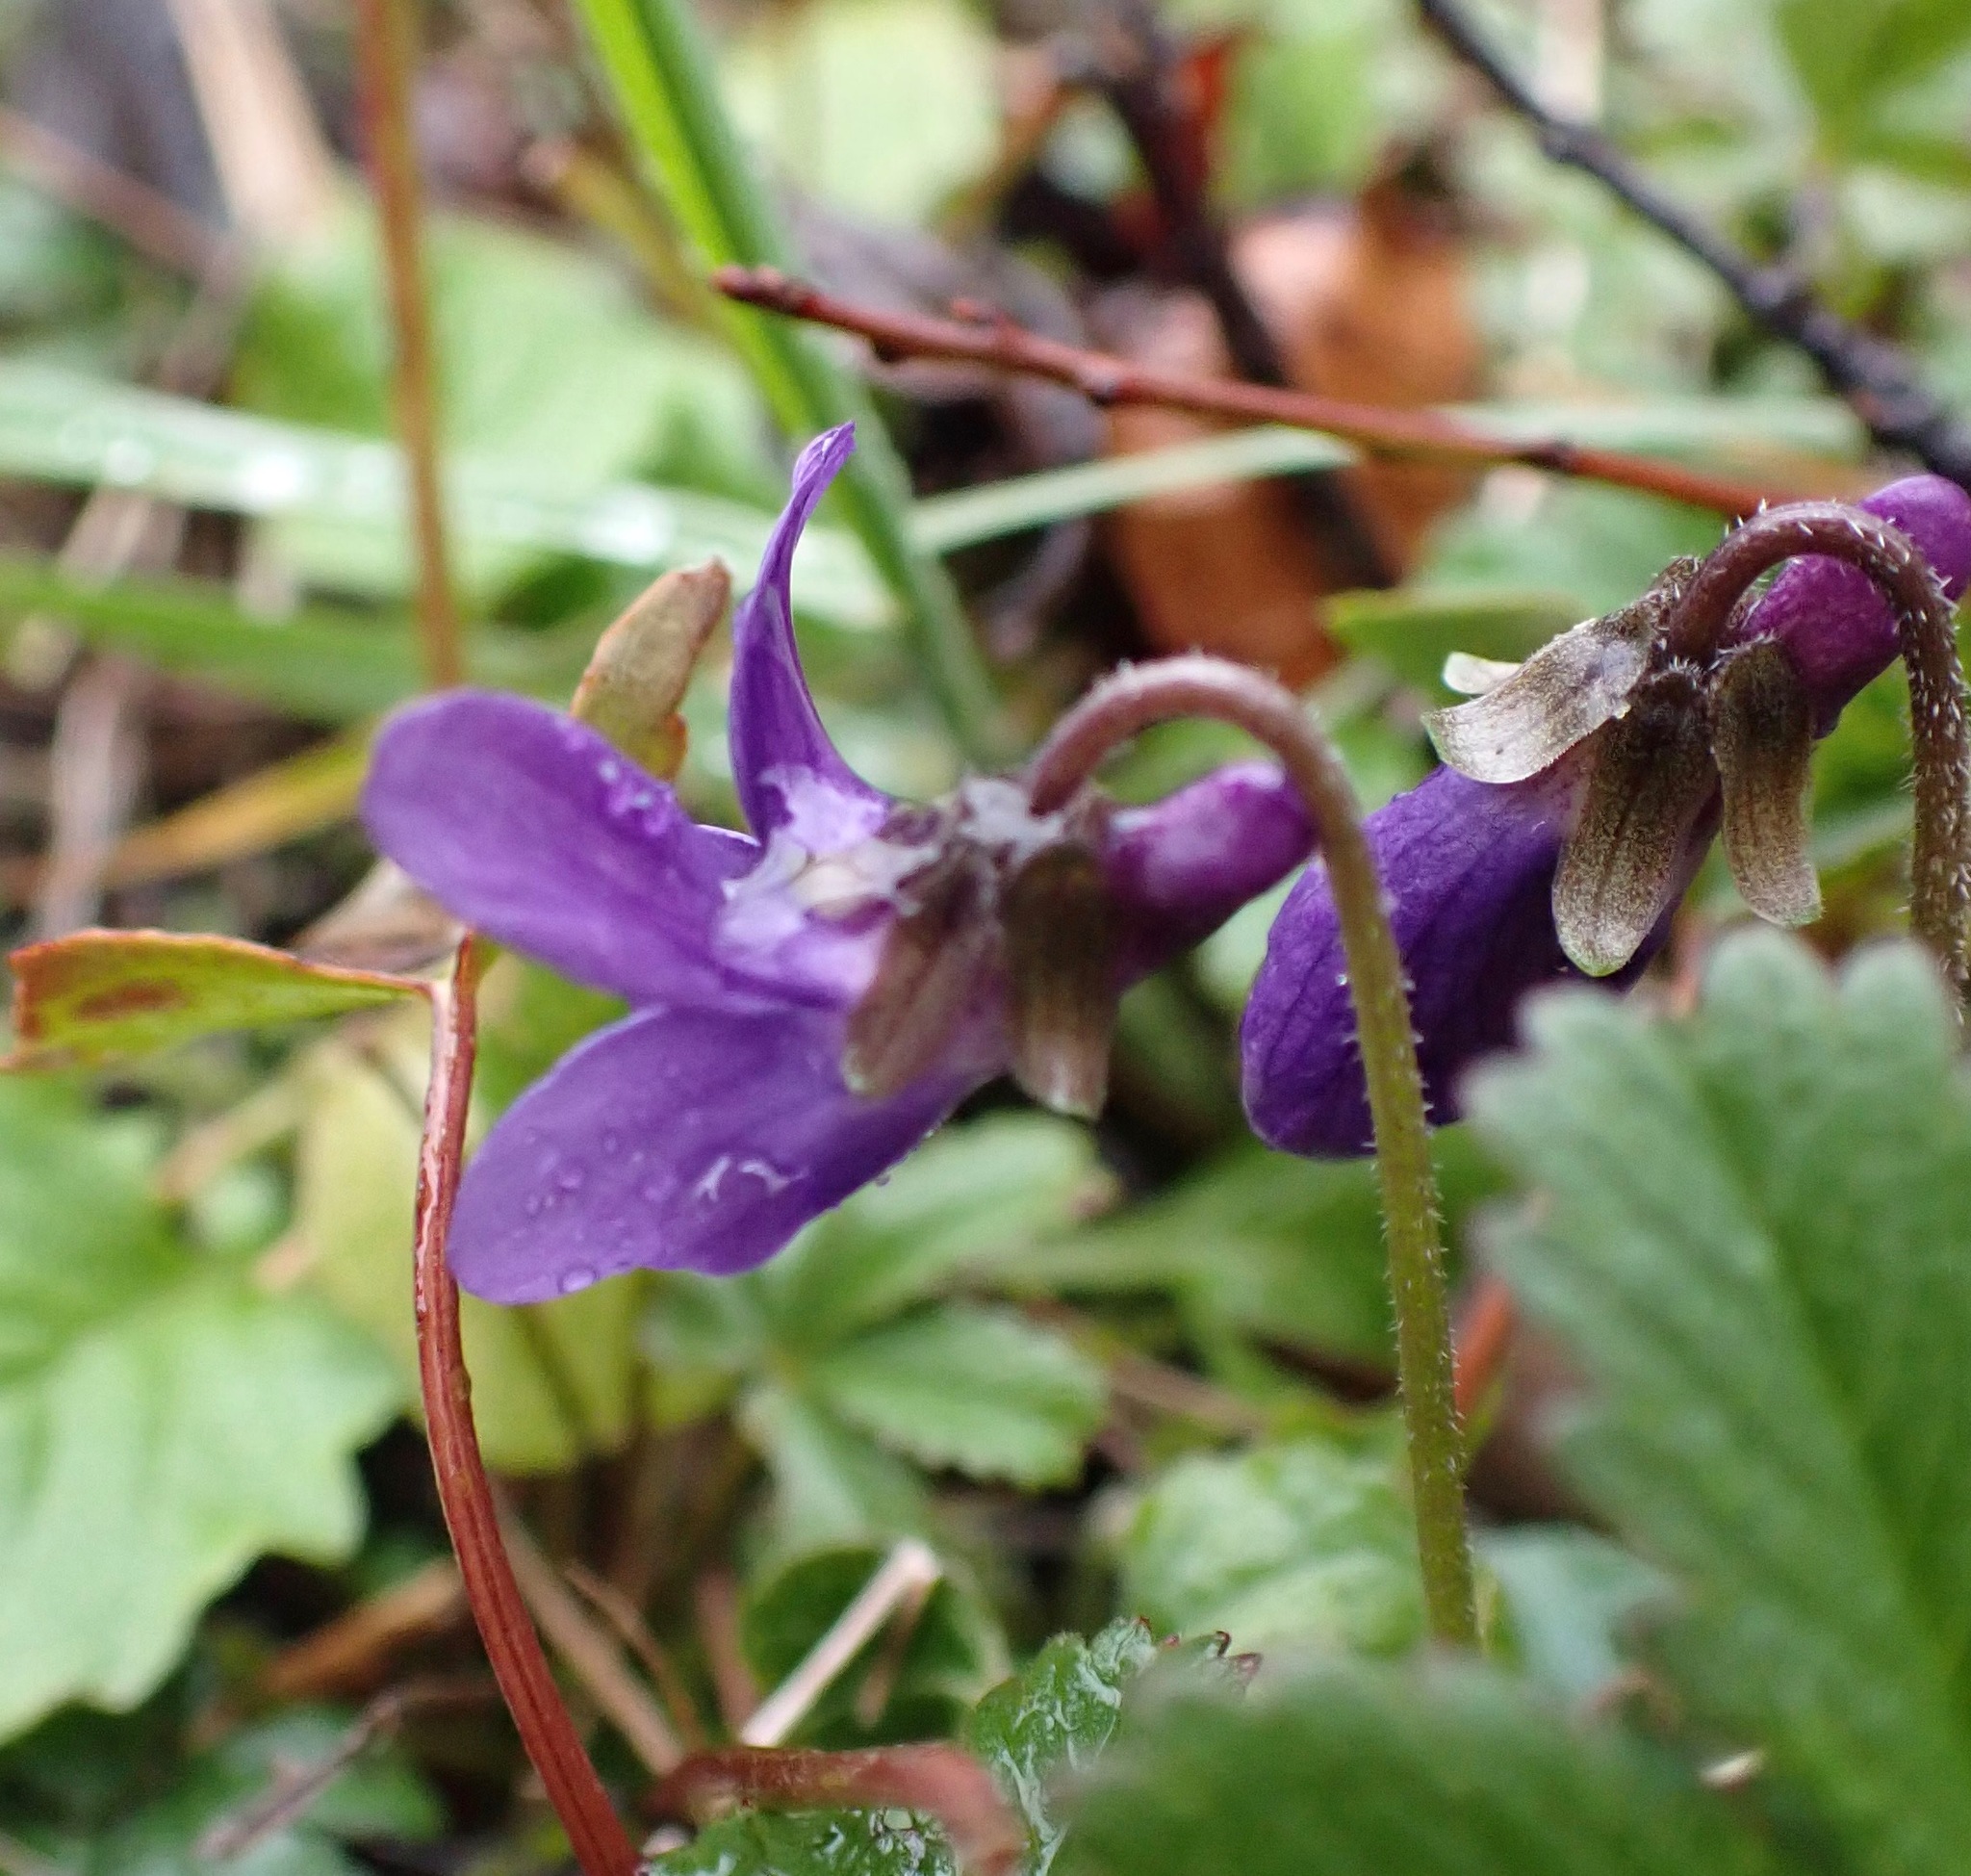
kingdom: Plantae
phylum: Tracheophyta
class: Magnoliopsida
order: Malpighiales
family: Violaceae
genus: Viola
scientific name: Viola odorata
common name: Sweet violet
